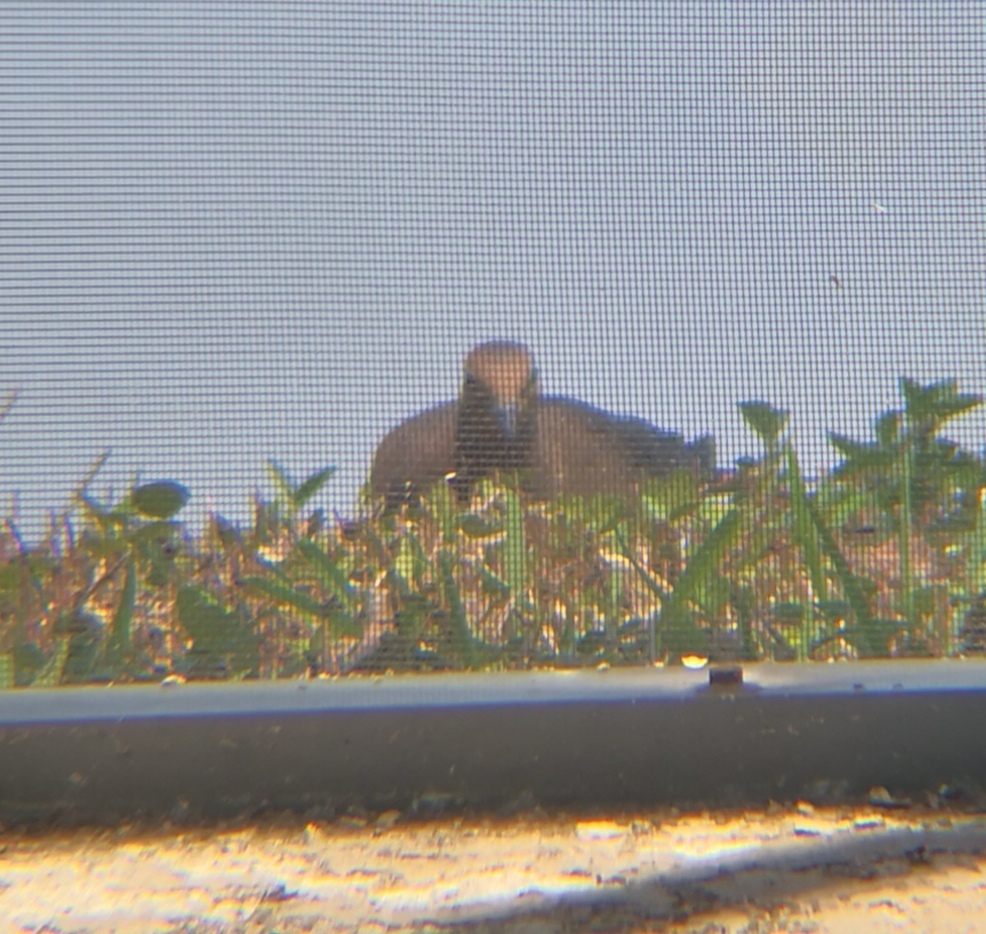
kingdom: Animalia
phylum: Chordata
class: Aves
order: Columbiformes
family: Columbidae
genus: Zenaida
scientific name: Zenaida macroura
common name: Mourning dove
